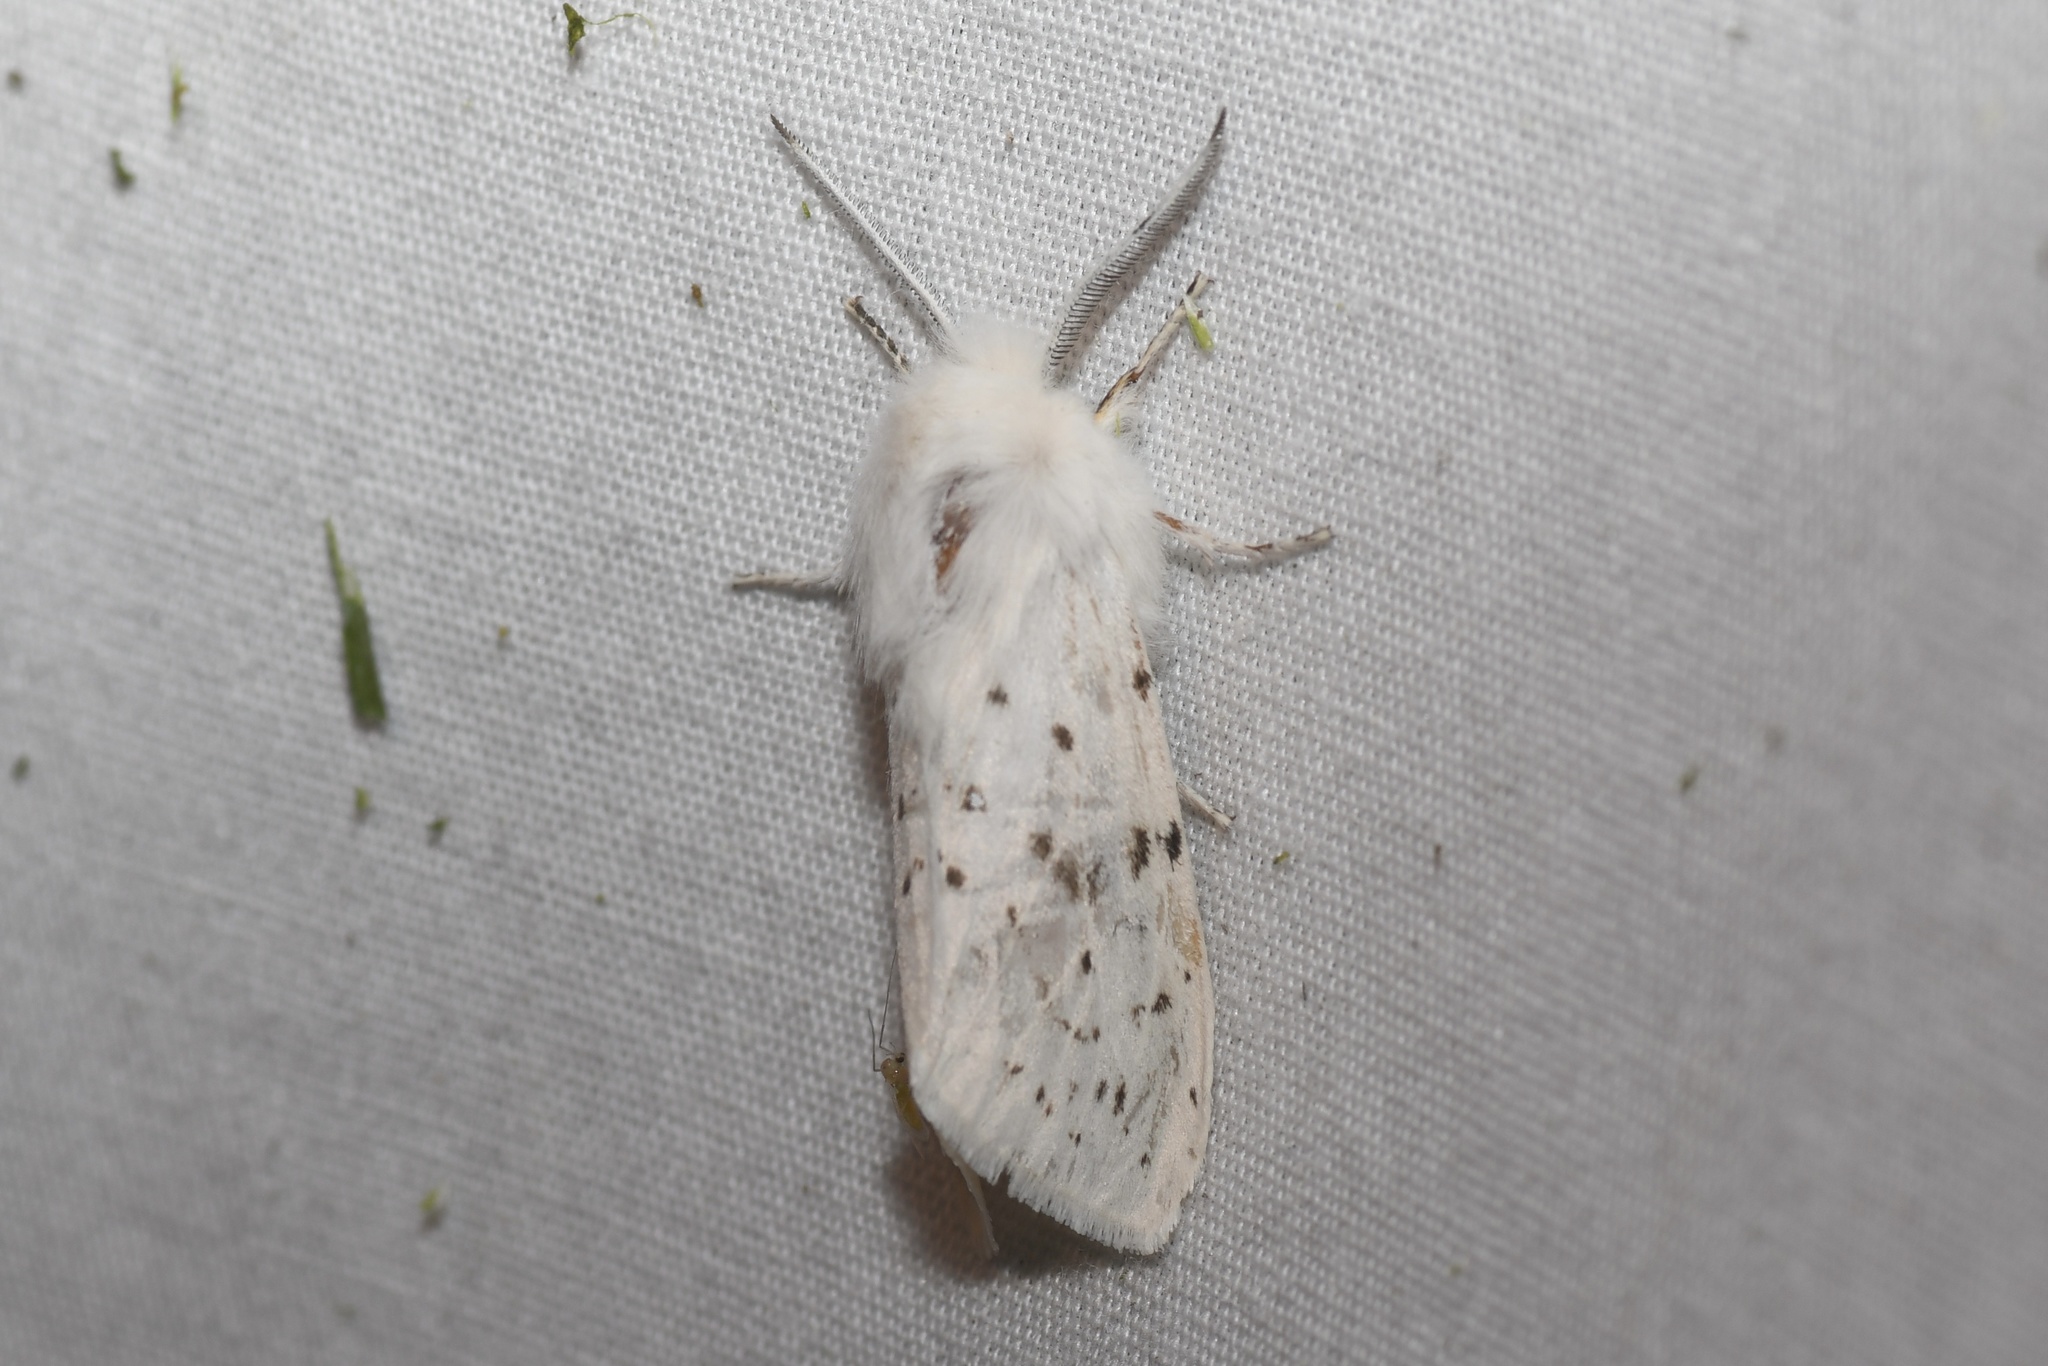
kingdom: Animalia
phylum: Arthropoda
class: Insecta
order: Lepidoptera
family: Erebidae
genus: Spilosoma
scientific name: Spilosoma dubia
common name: Dubious tiger moth
